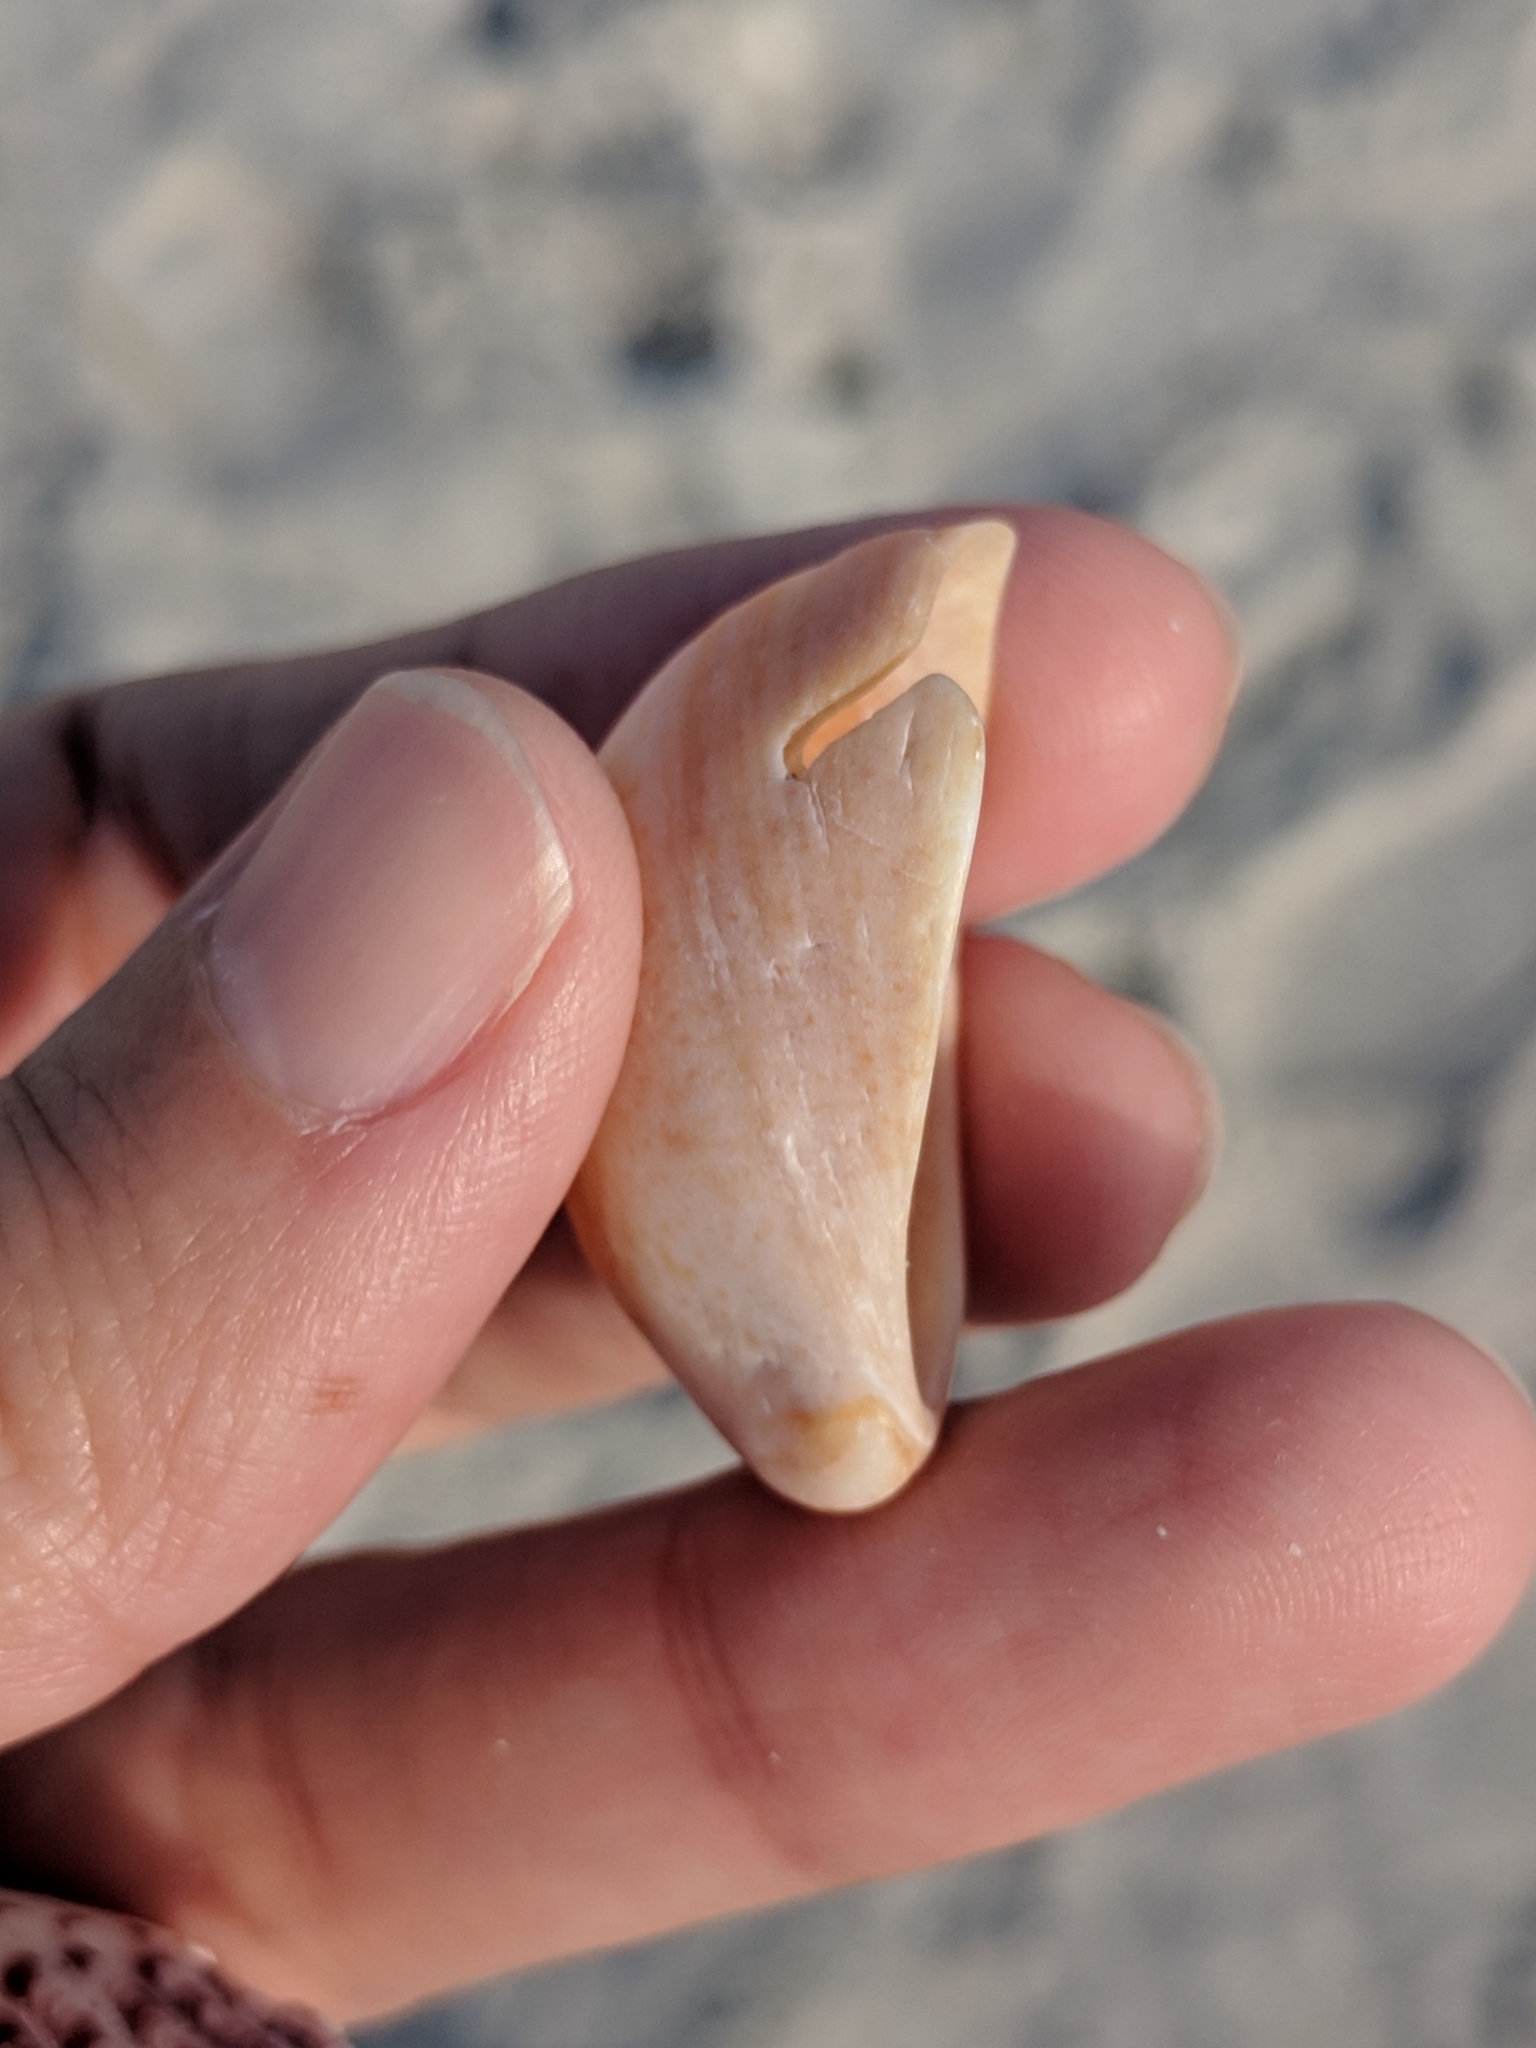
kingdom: Animalia
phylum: Mollusca
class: Gastropoda
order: Littorinimorpha
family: Calyptraeidae
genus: Crepidula
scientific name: Crepidula fornicata
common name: Slipper limpet
